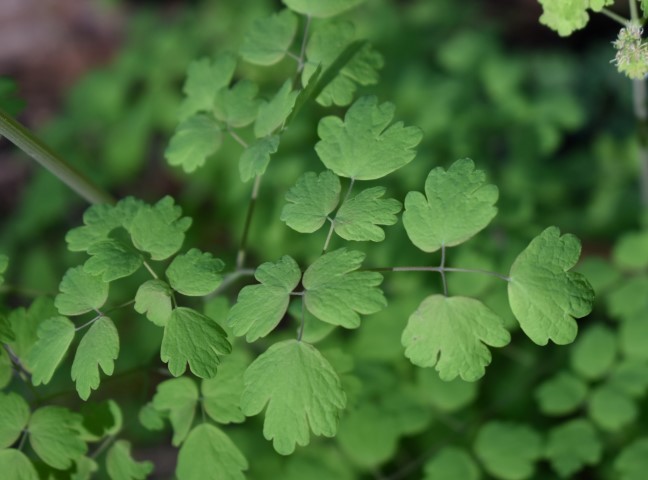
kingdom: Plantae
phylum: Tracheophyta
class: Magnoliopsida
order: Ranunculales
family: Ranunculaceae
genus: Thalictrum
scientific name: Thalictrum occidentale
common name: Western meadow-rue
